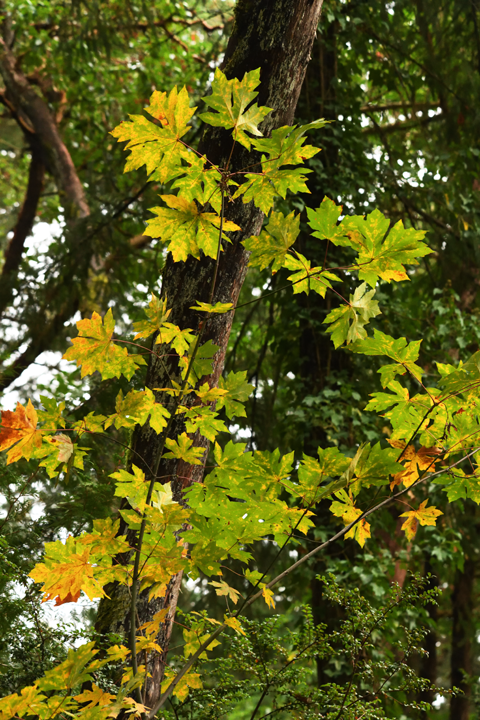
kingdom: Plantae
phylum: Tracheophyta
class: Magnoliopsida
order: Sapindales
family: Sapindaceae
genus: Acer
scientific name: Acer macrophyllum
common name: Oregon maple
